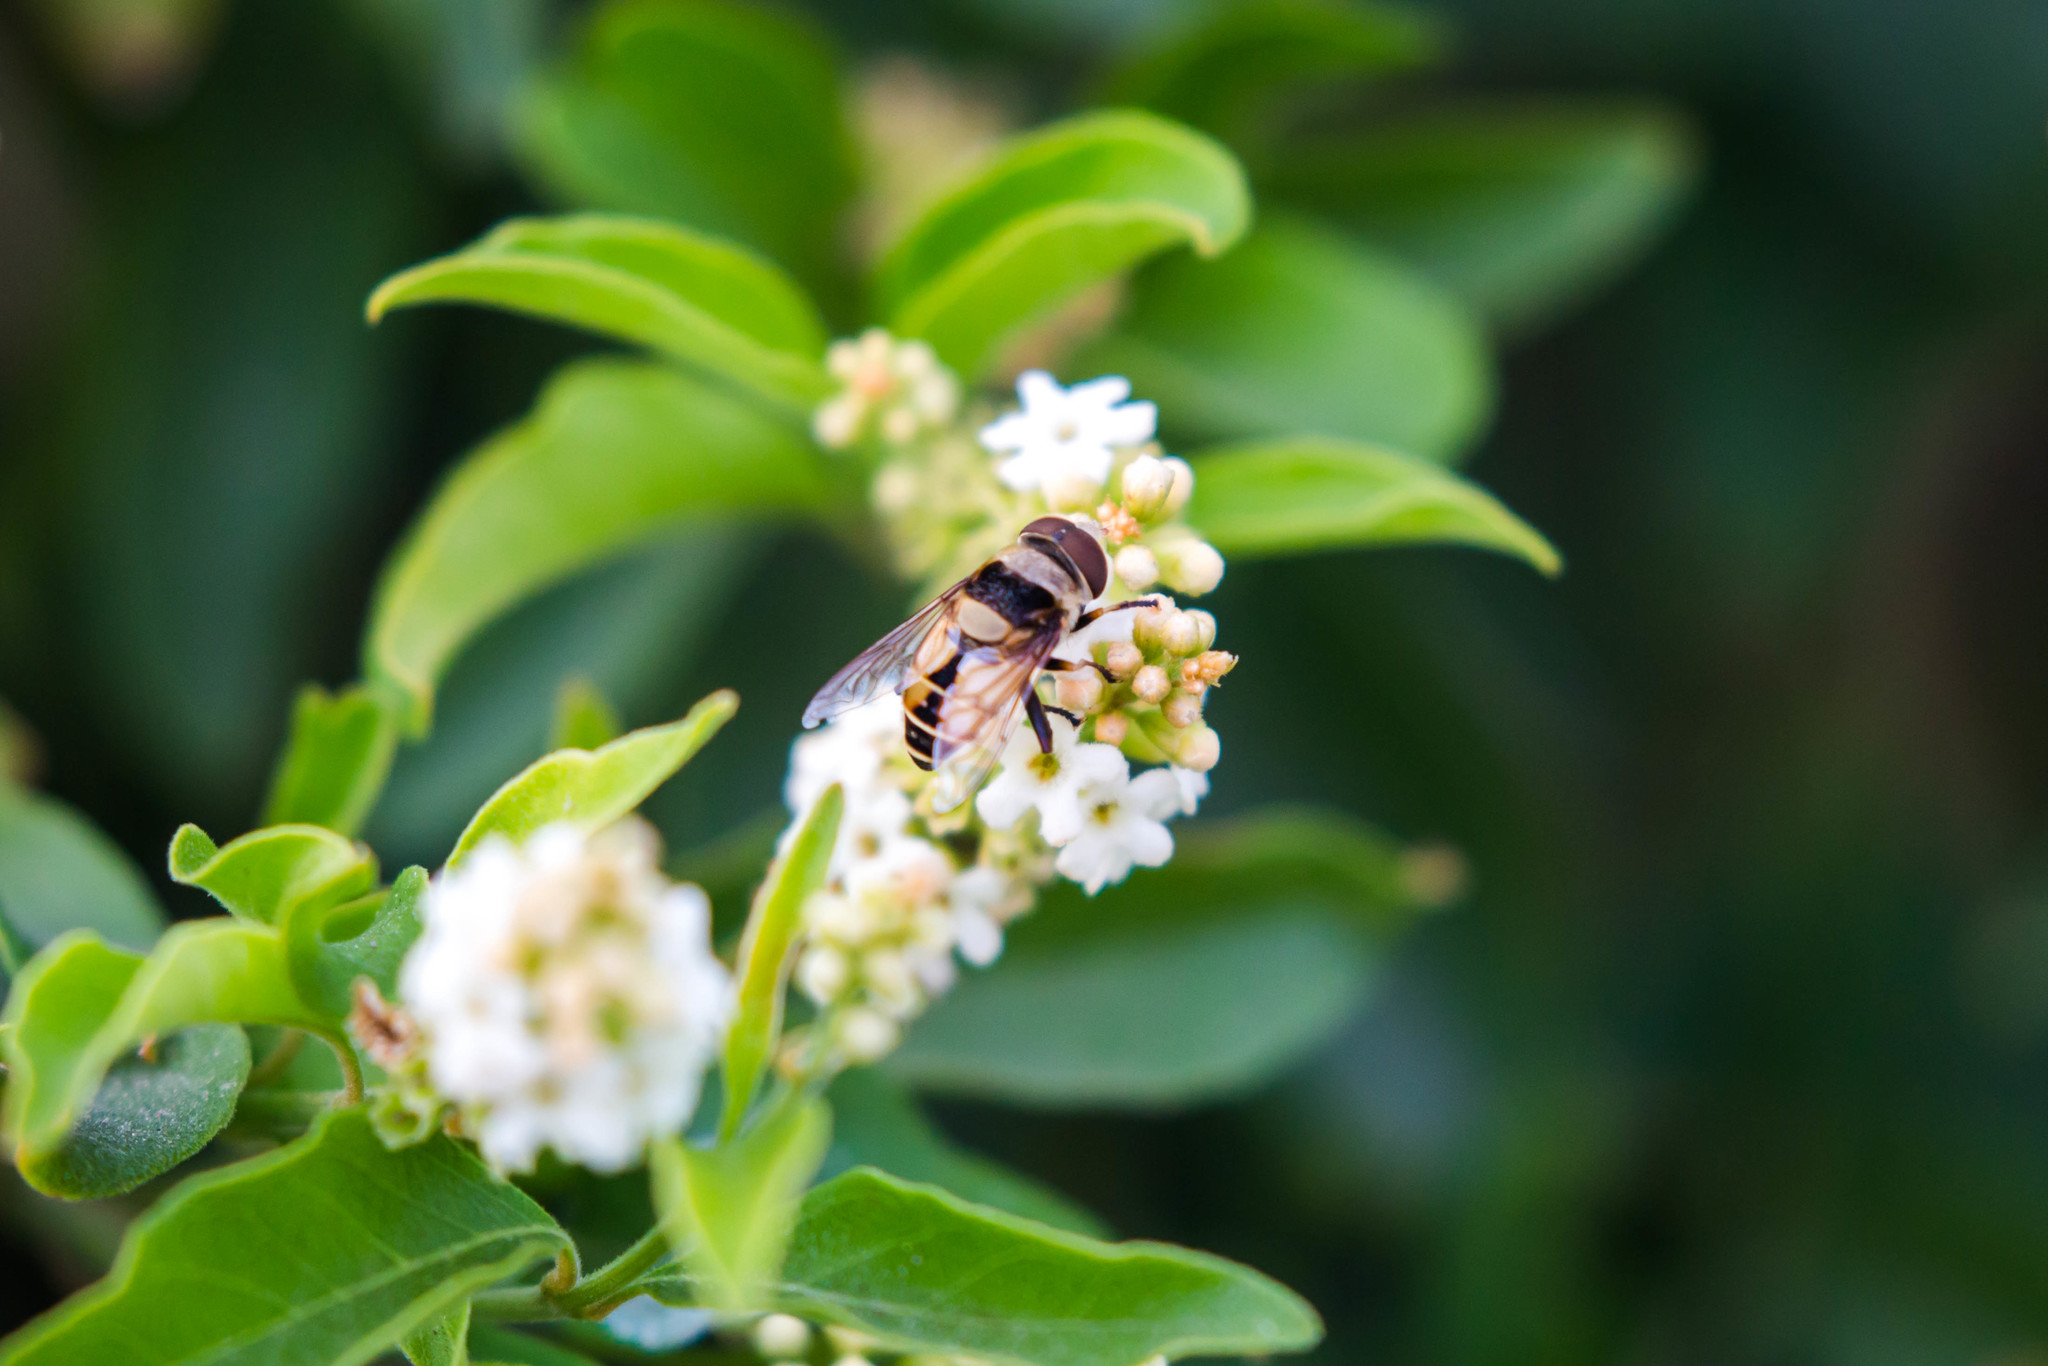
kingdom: Animalia
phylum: Arthropoda
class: Insecta
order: Diptera
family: Syrphidae
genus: Palpada
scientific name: Palpada pusilla
